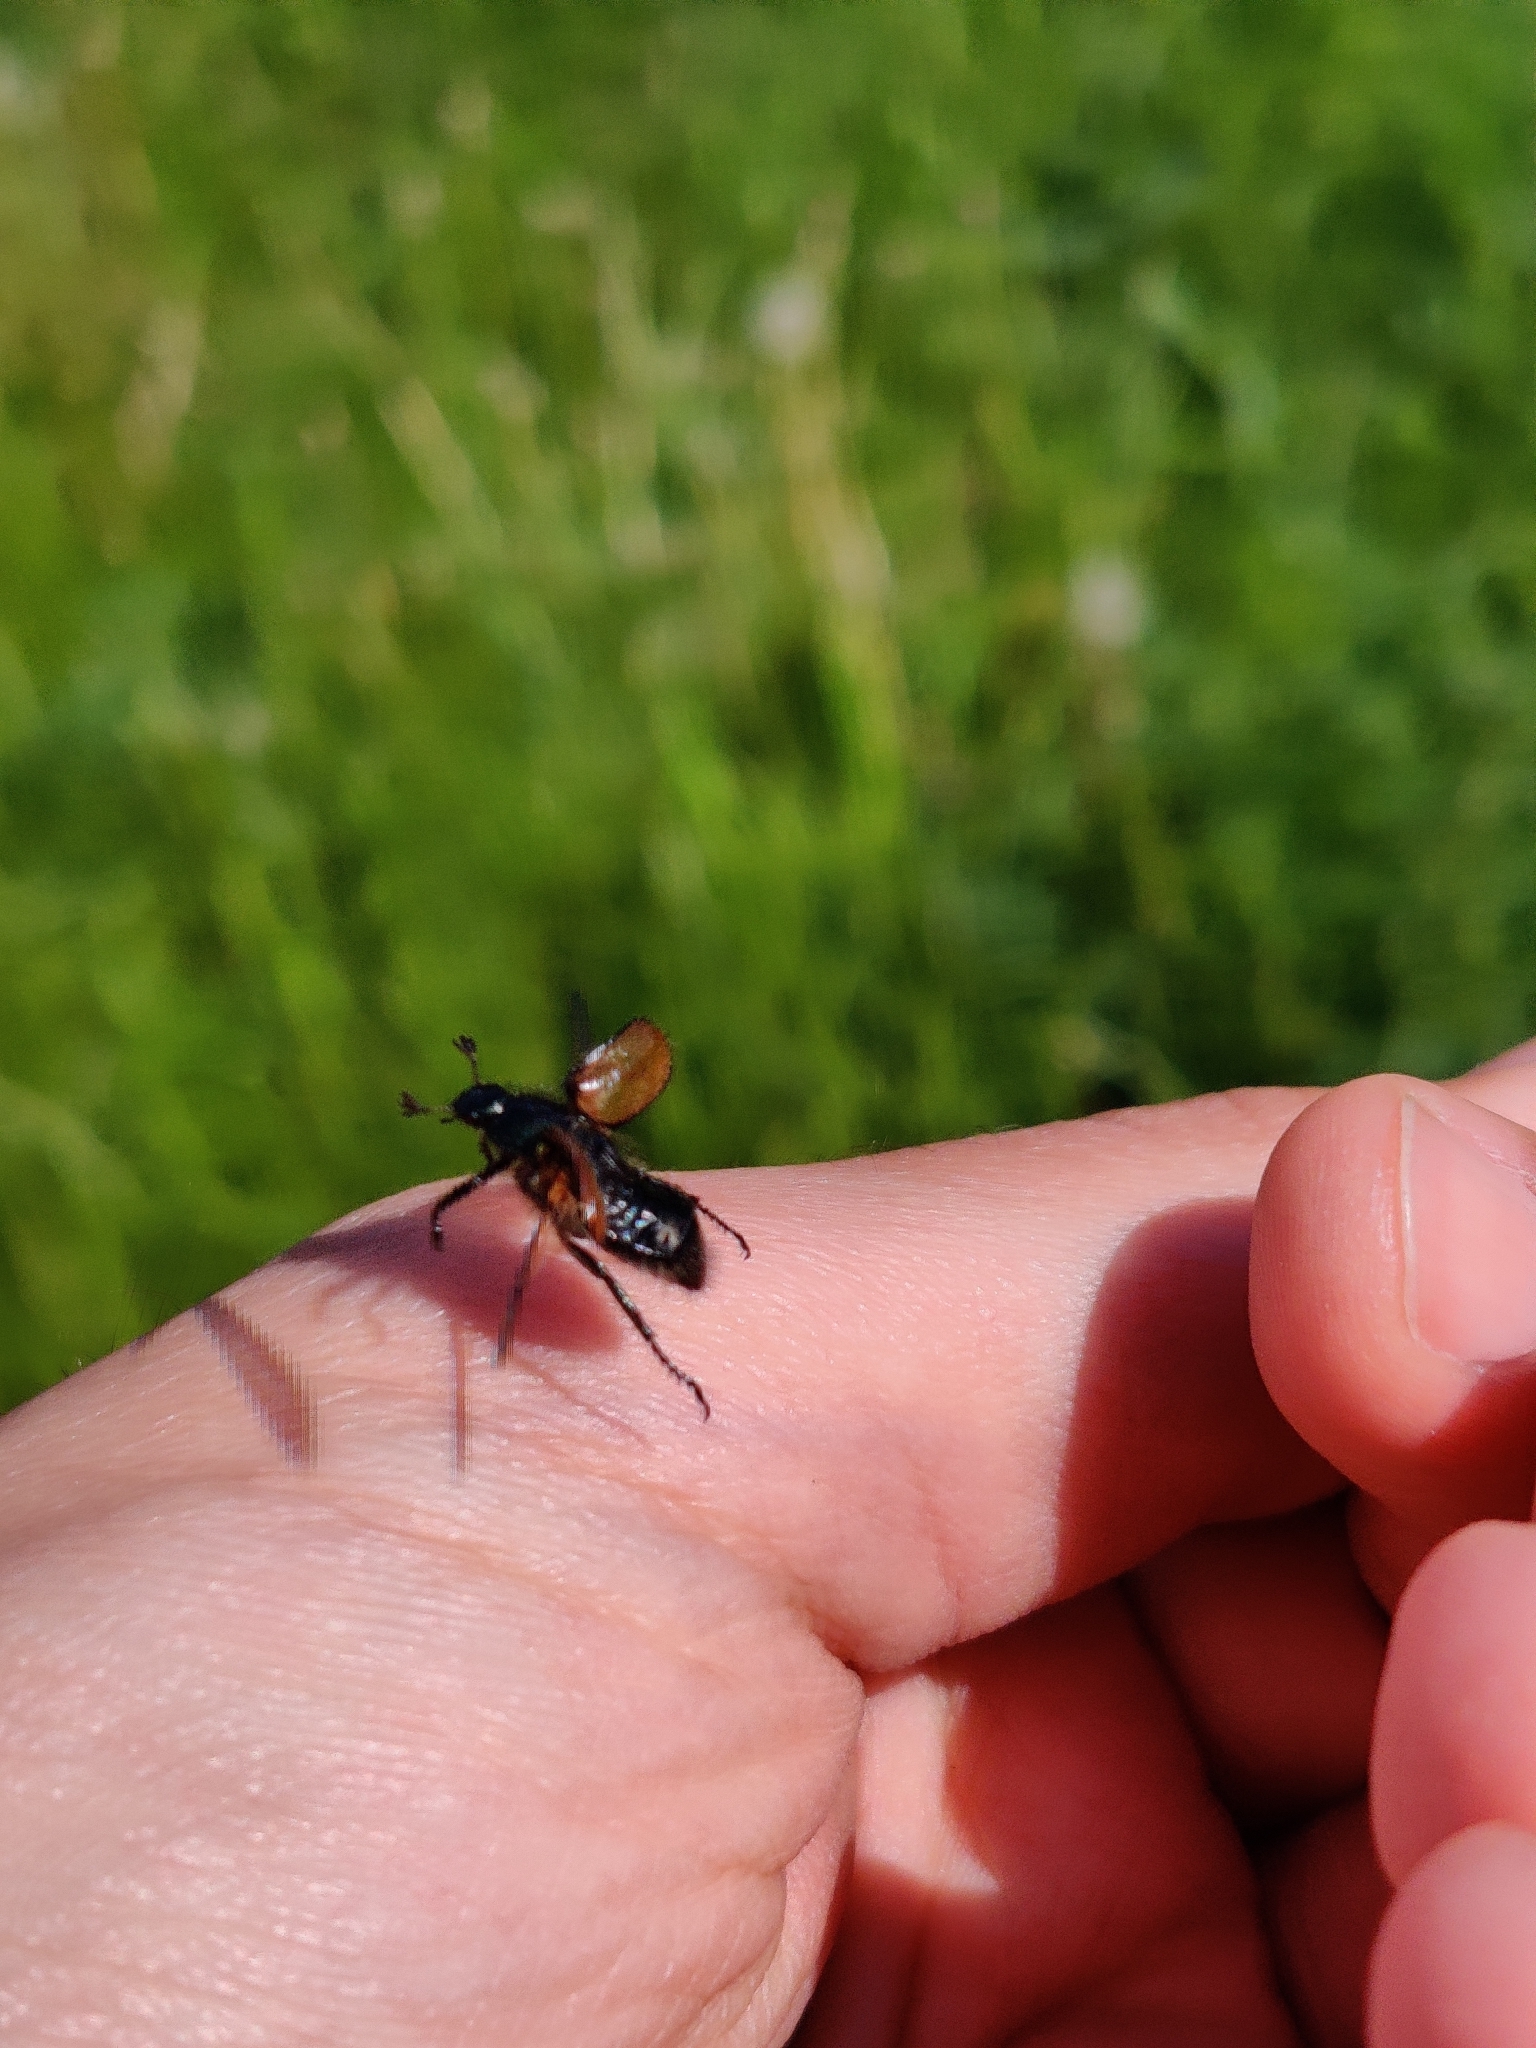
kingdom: Animalia
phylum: Arthropoda
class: Insecta
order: Coleoptera
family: Scarabaeidae
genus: Phyllopertha
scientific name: Phyllopertha horticola
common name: Garden chafer
